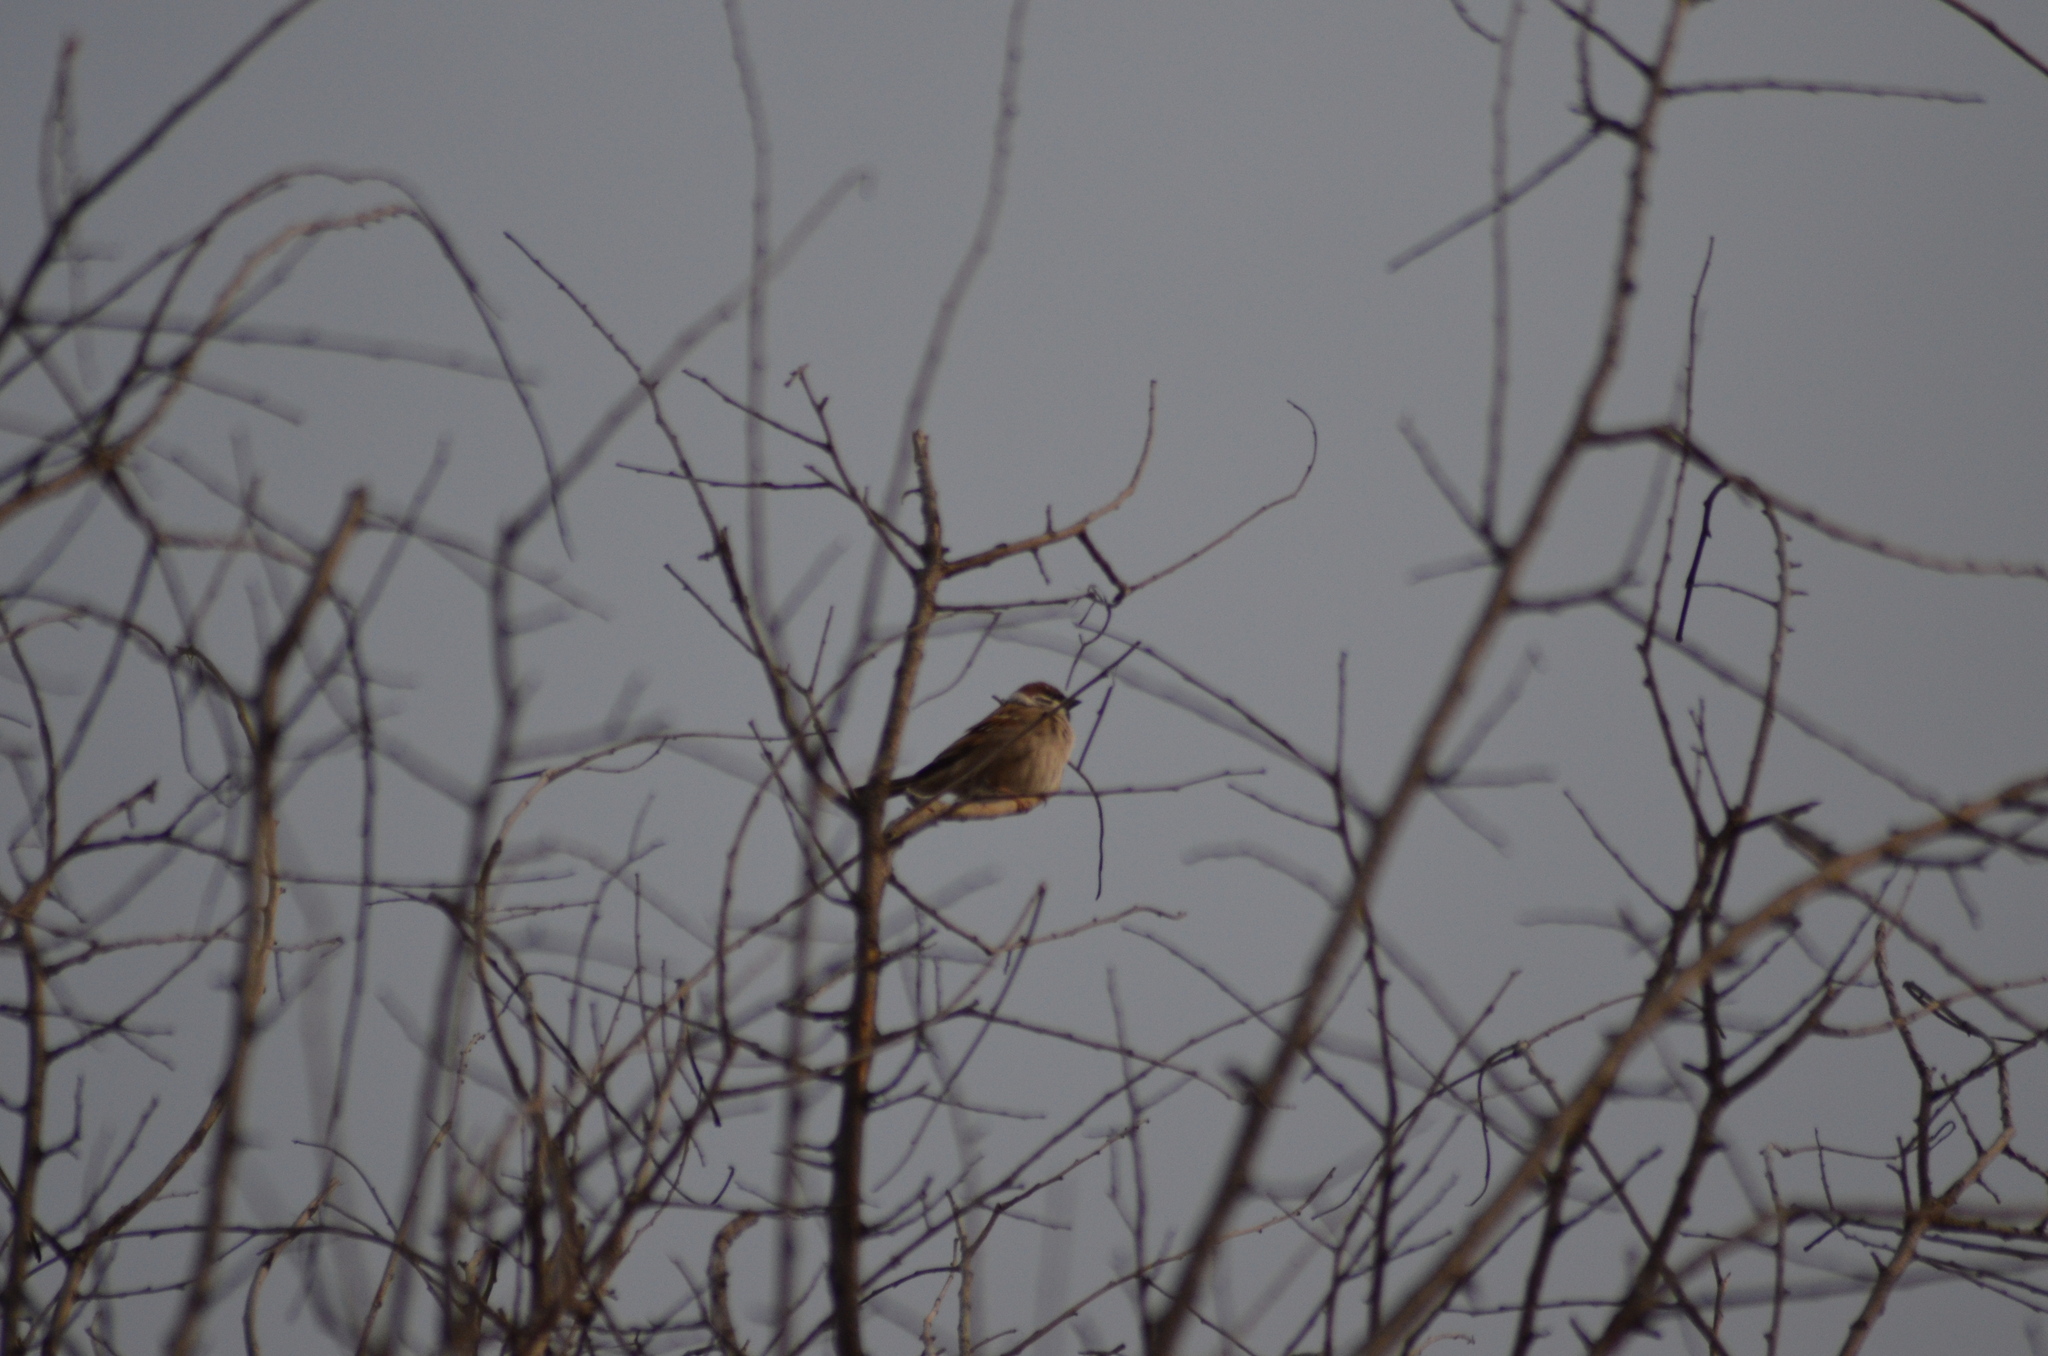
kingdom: Animalia
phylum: Chordata
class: Aves
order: Passeriformes
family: Passeridae
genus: Passer
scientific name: Passer montanus
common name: Eurasian tree sparrow
